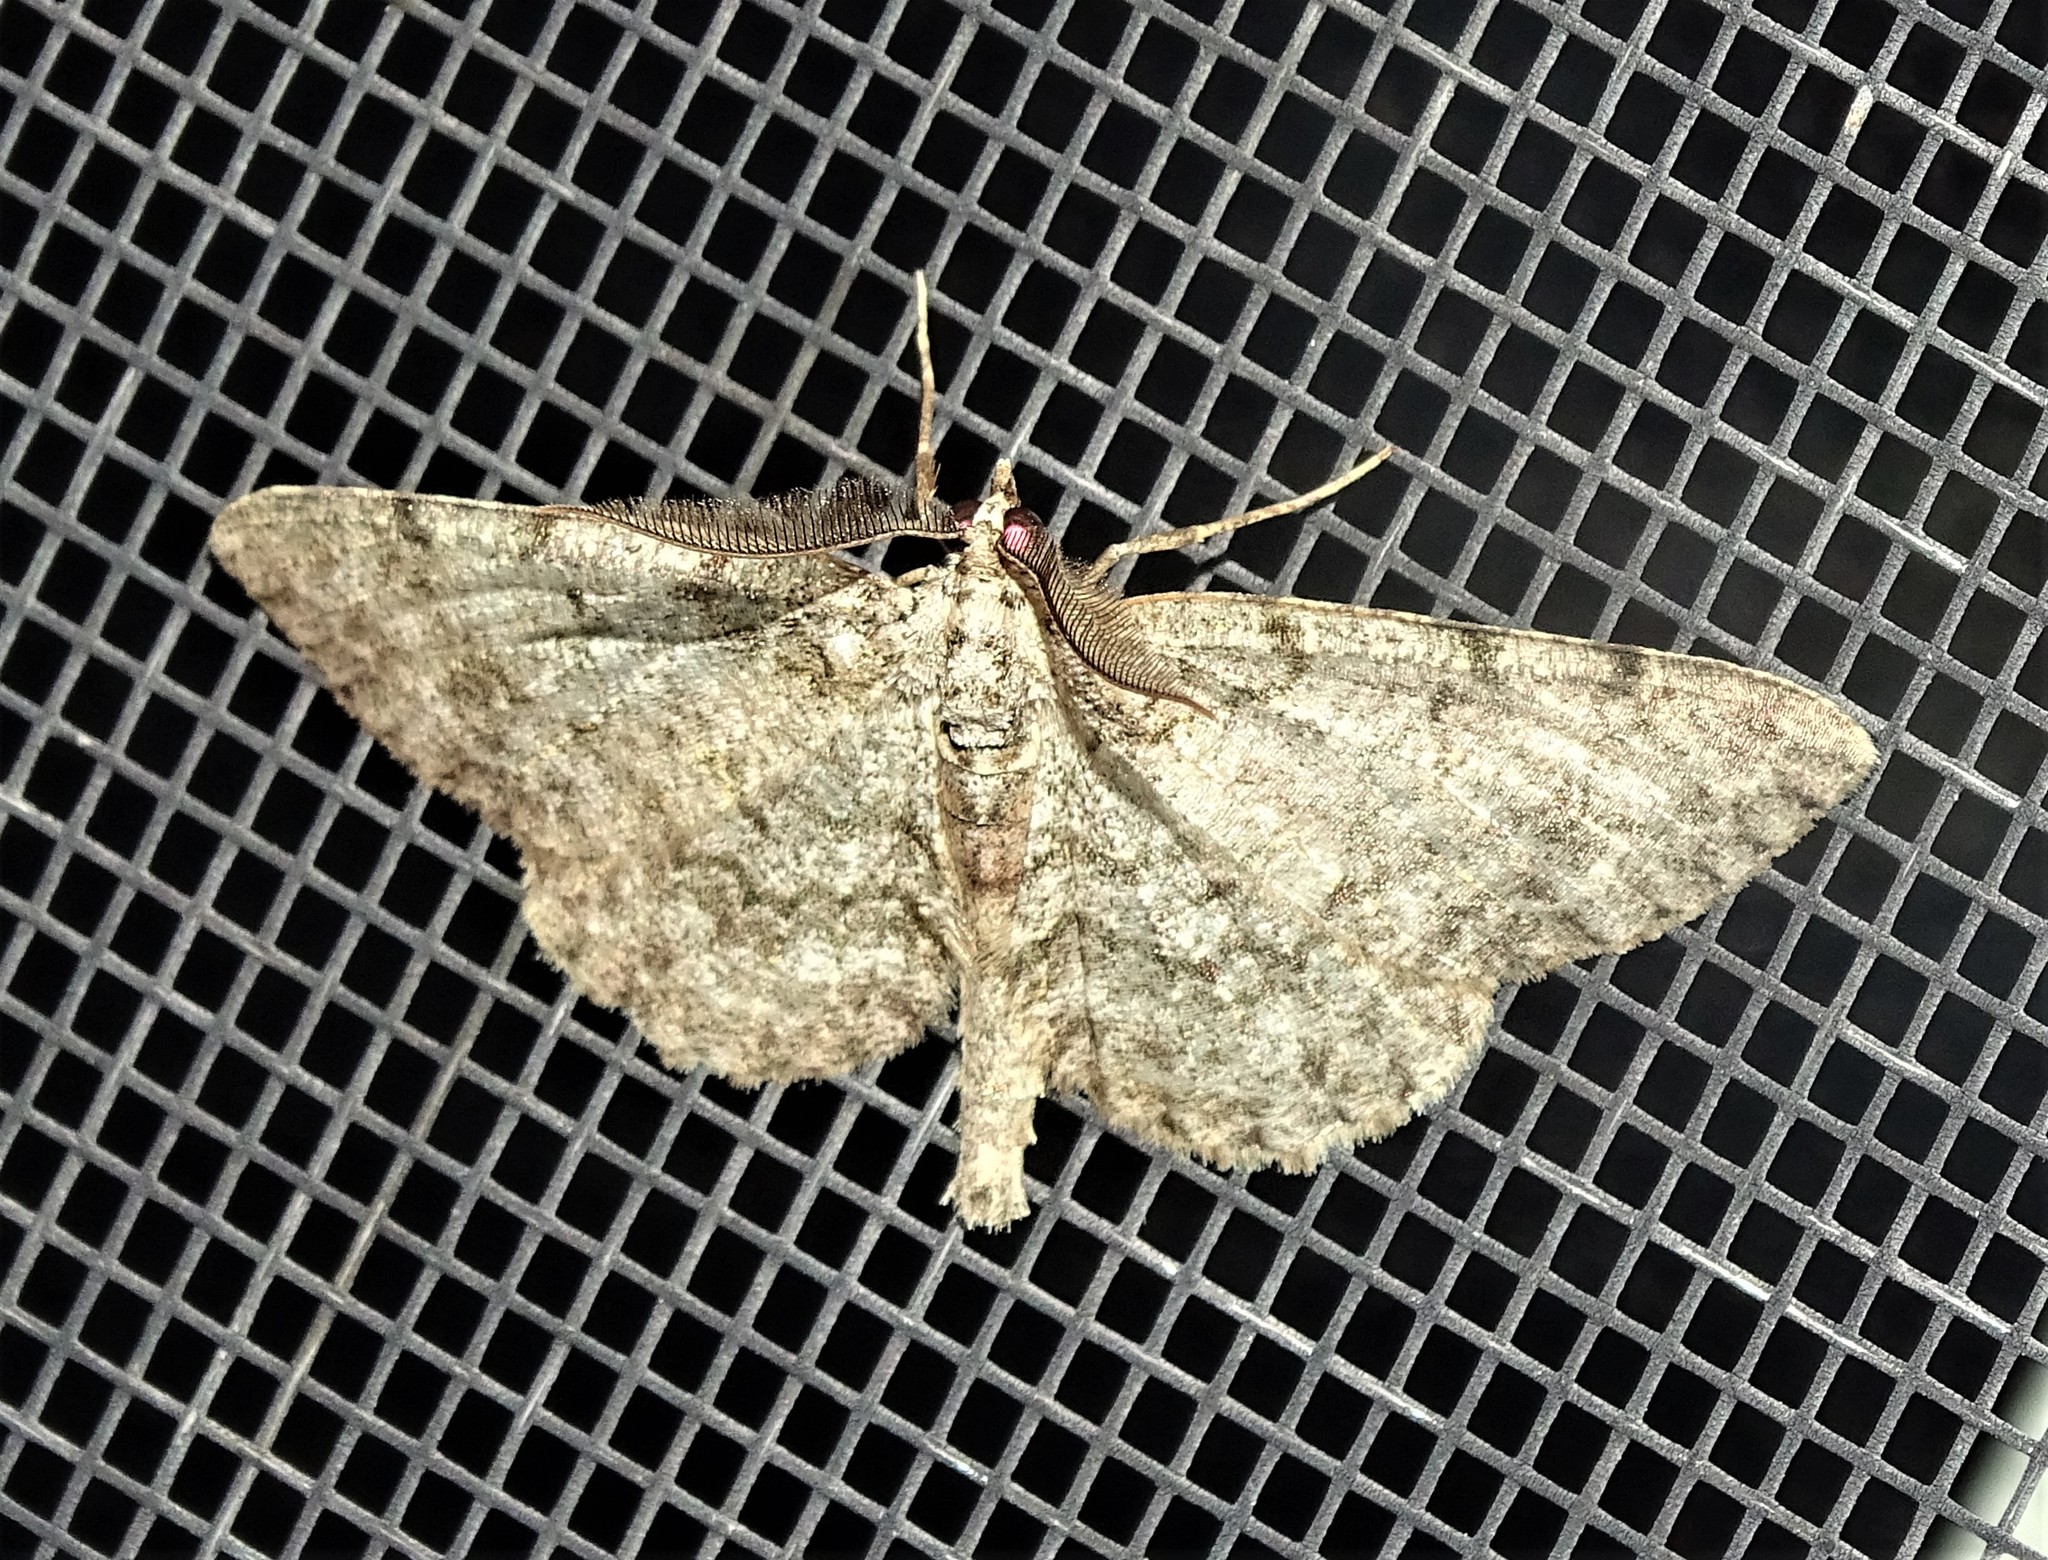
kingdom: Animalia
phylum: Arthropoda
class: Insecta
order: Lepidoptera
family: Geometridae
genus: Protoboarmia
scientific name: Protoboarmia porcelaria
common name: Porcelain gray
